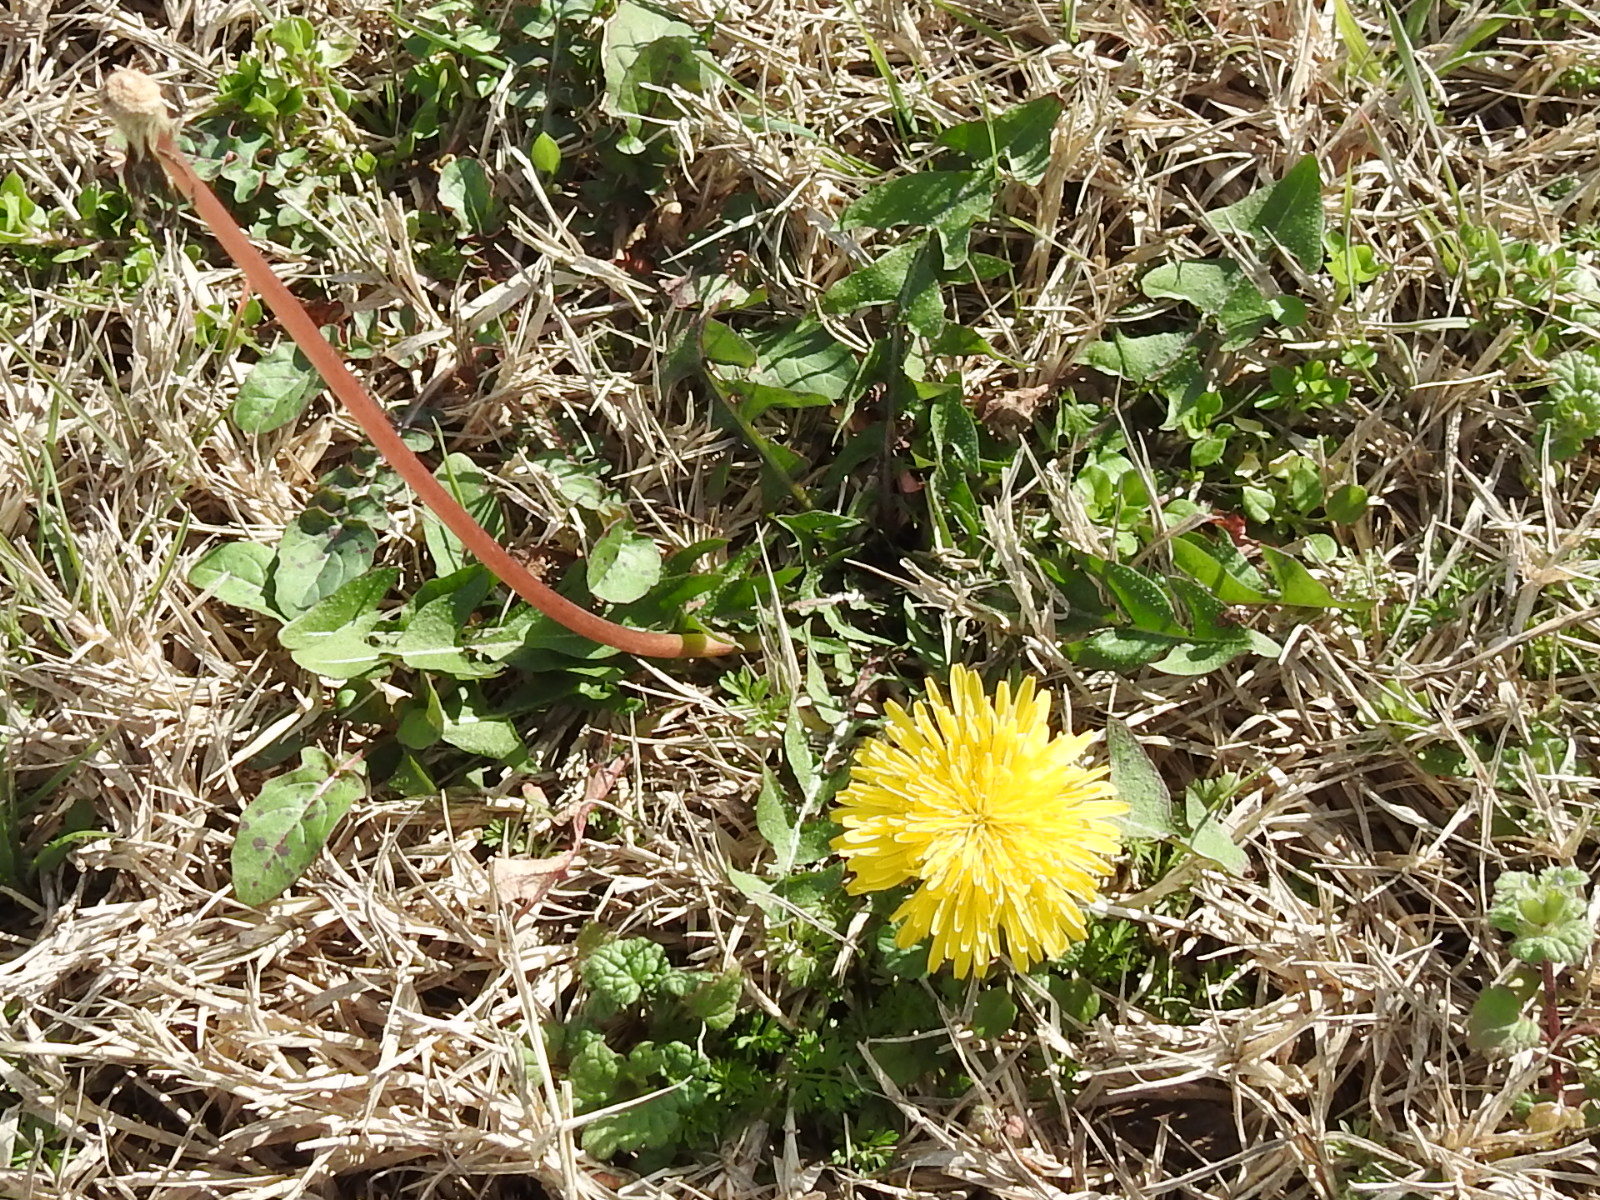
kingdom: Plantae
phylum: Tracheophyta
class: Magnoliopsida
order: Asterales
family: Asteraceae
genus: Taraxacum
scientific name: Taraxacum officinale
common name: Common dandelion
